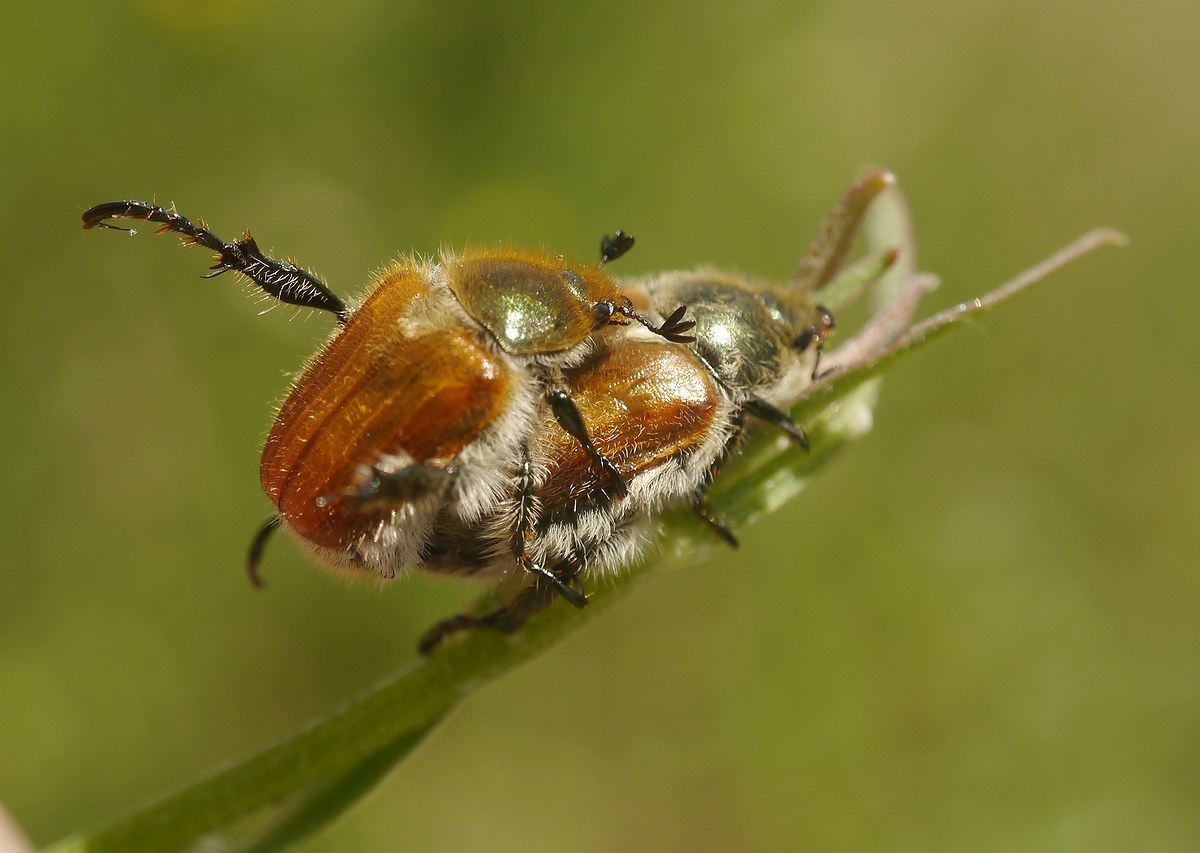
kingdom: Animalia
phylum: Arthropoda
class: Insecta
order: Coleoptera
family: Scarabaeidae
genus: Chaetopteroplia
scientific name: Chaetopteroplia segetum
